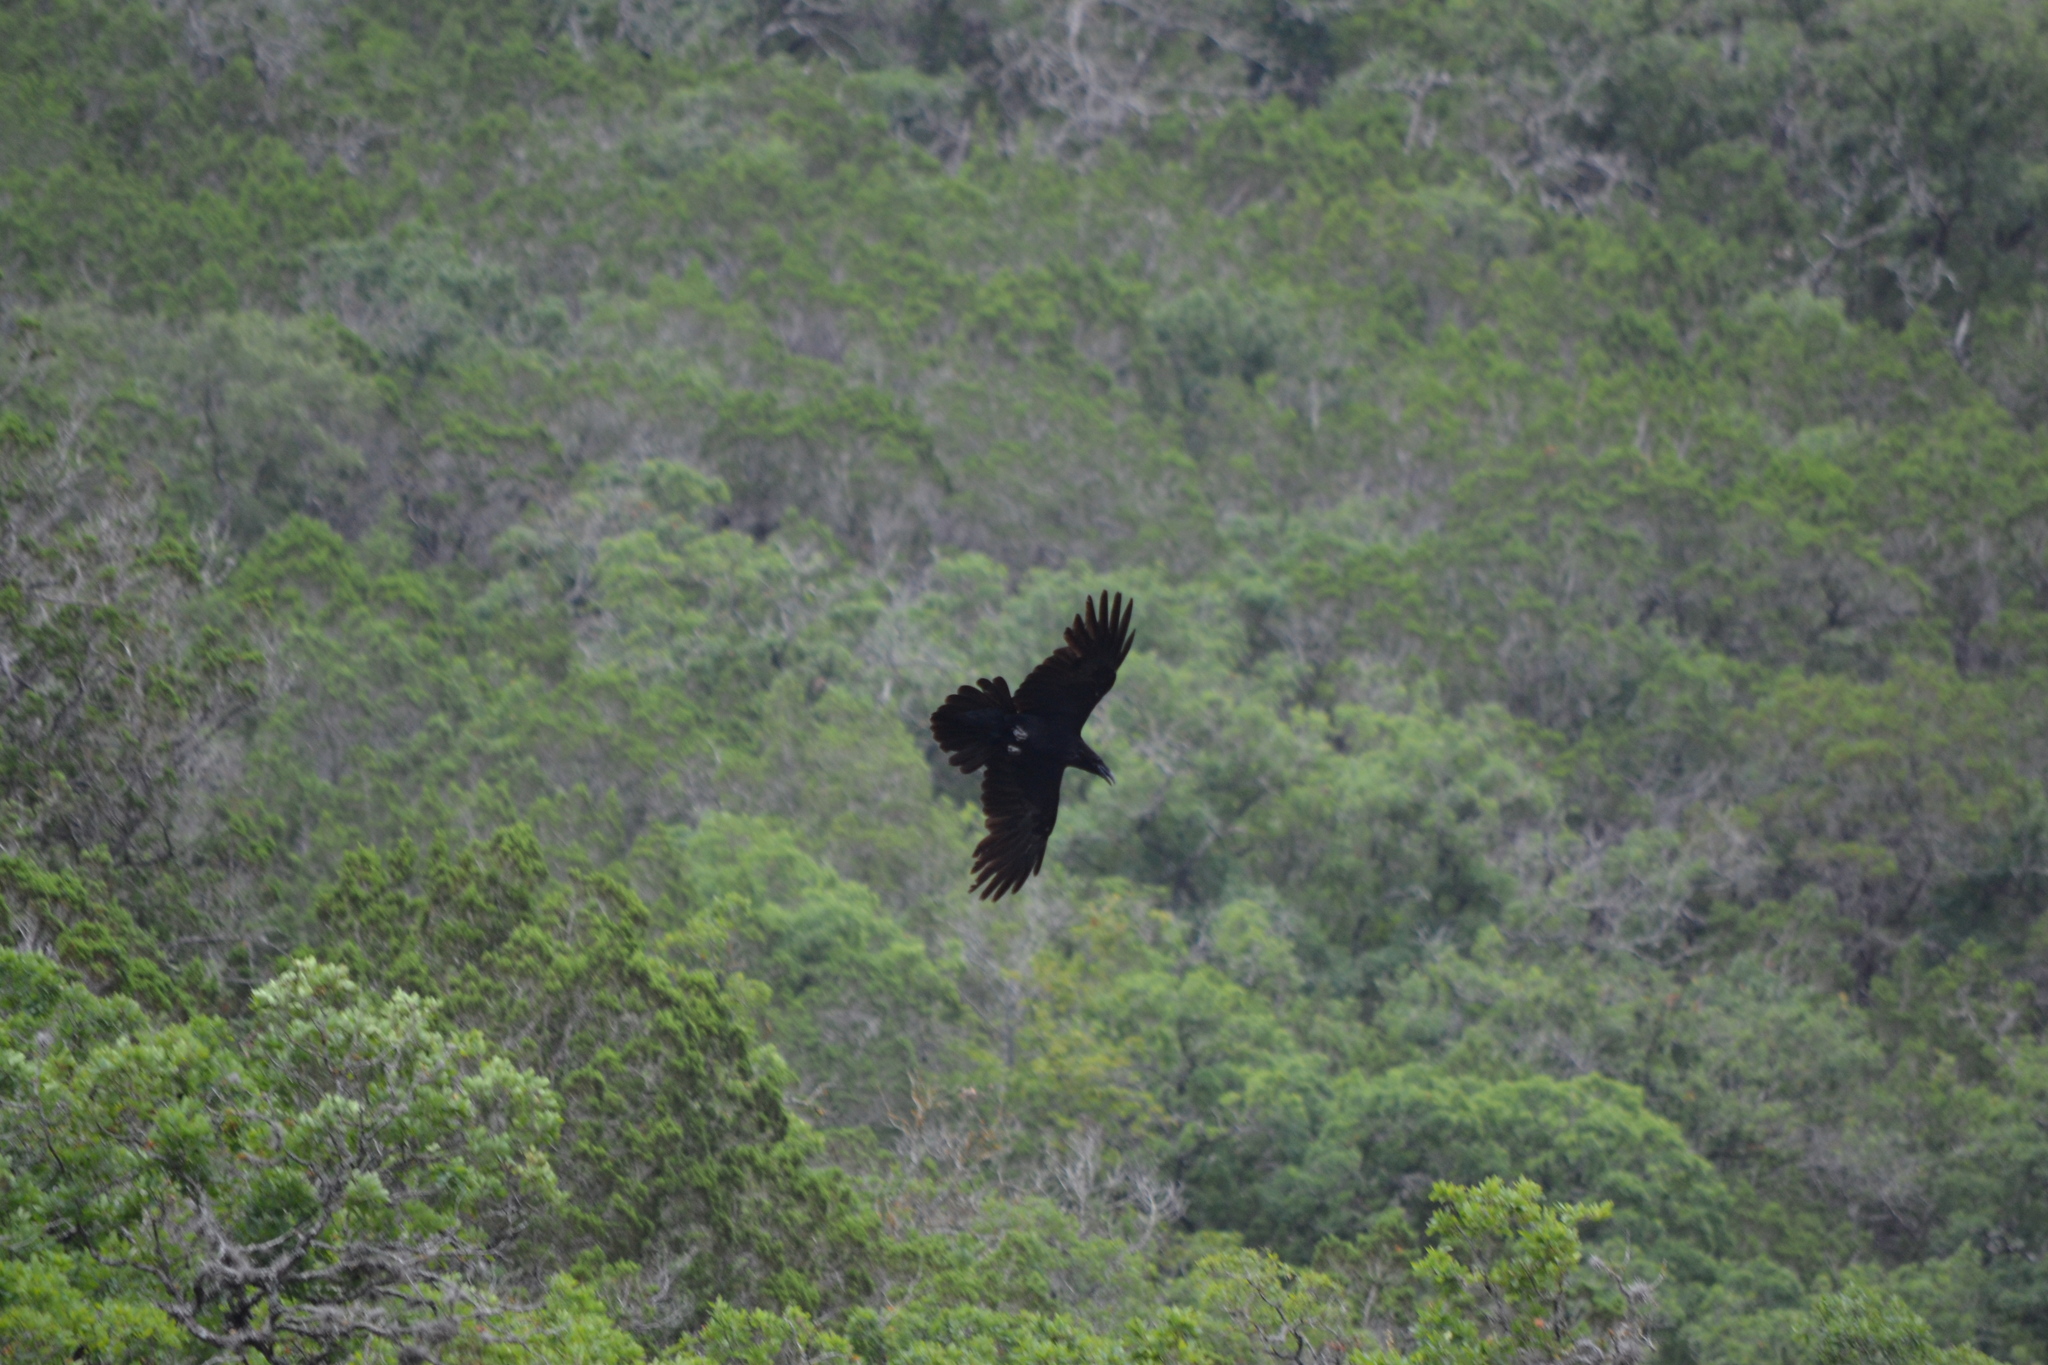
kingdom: Animalia
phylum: Chordata
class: Aves
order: Passeriformes
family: Corvidae
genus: Corvus
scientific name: Corvus corax
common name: Common raven
